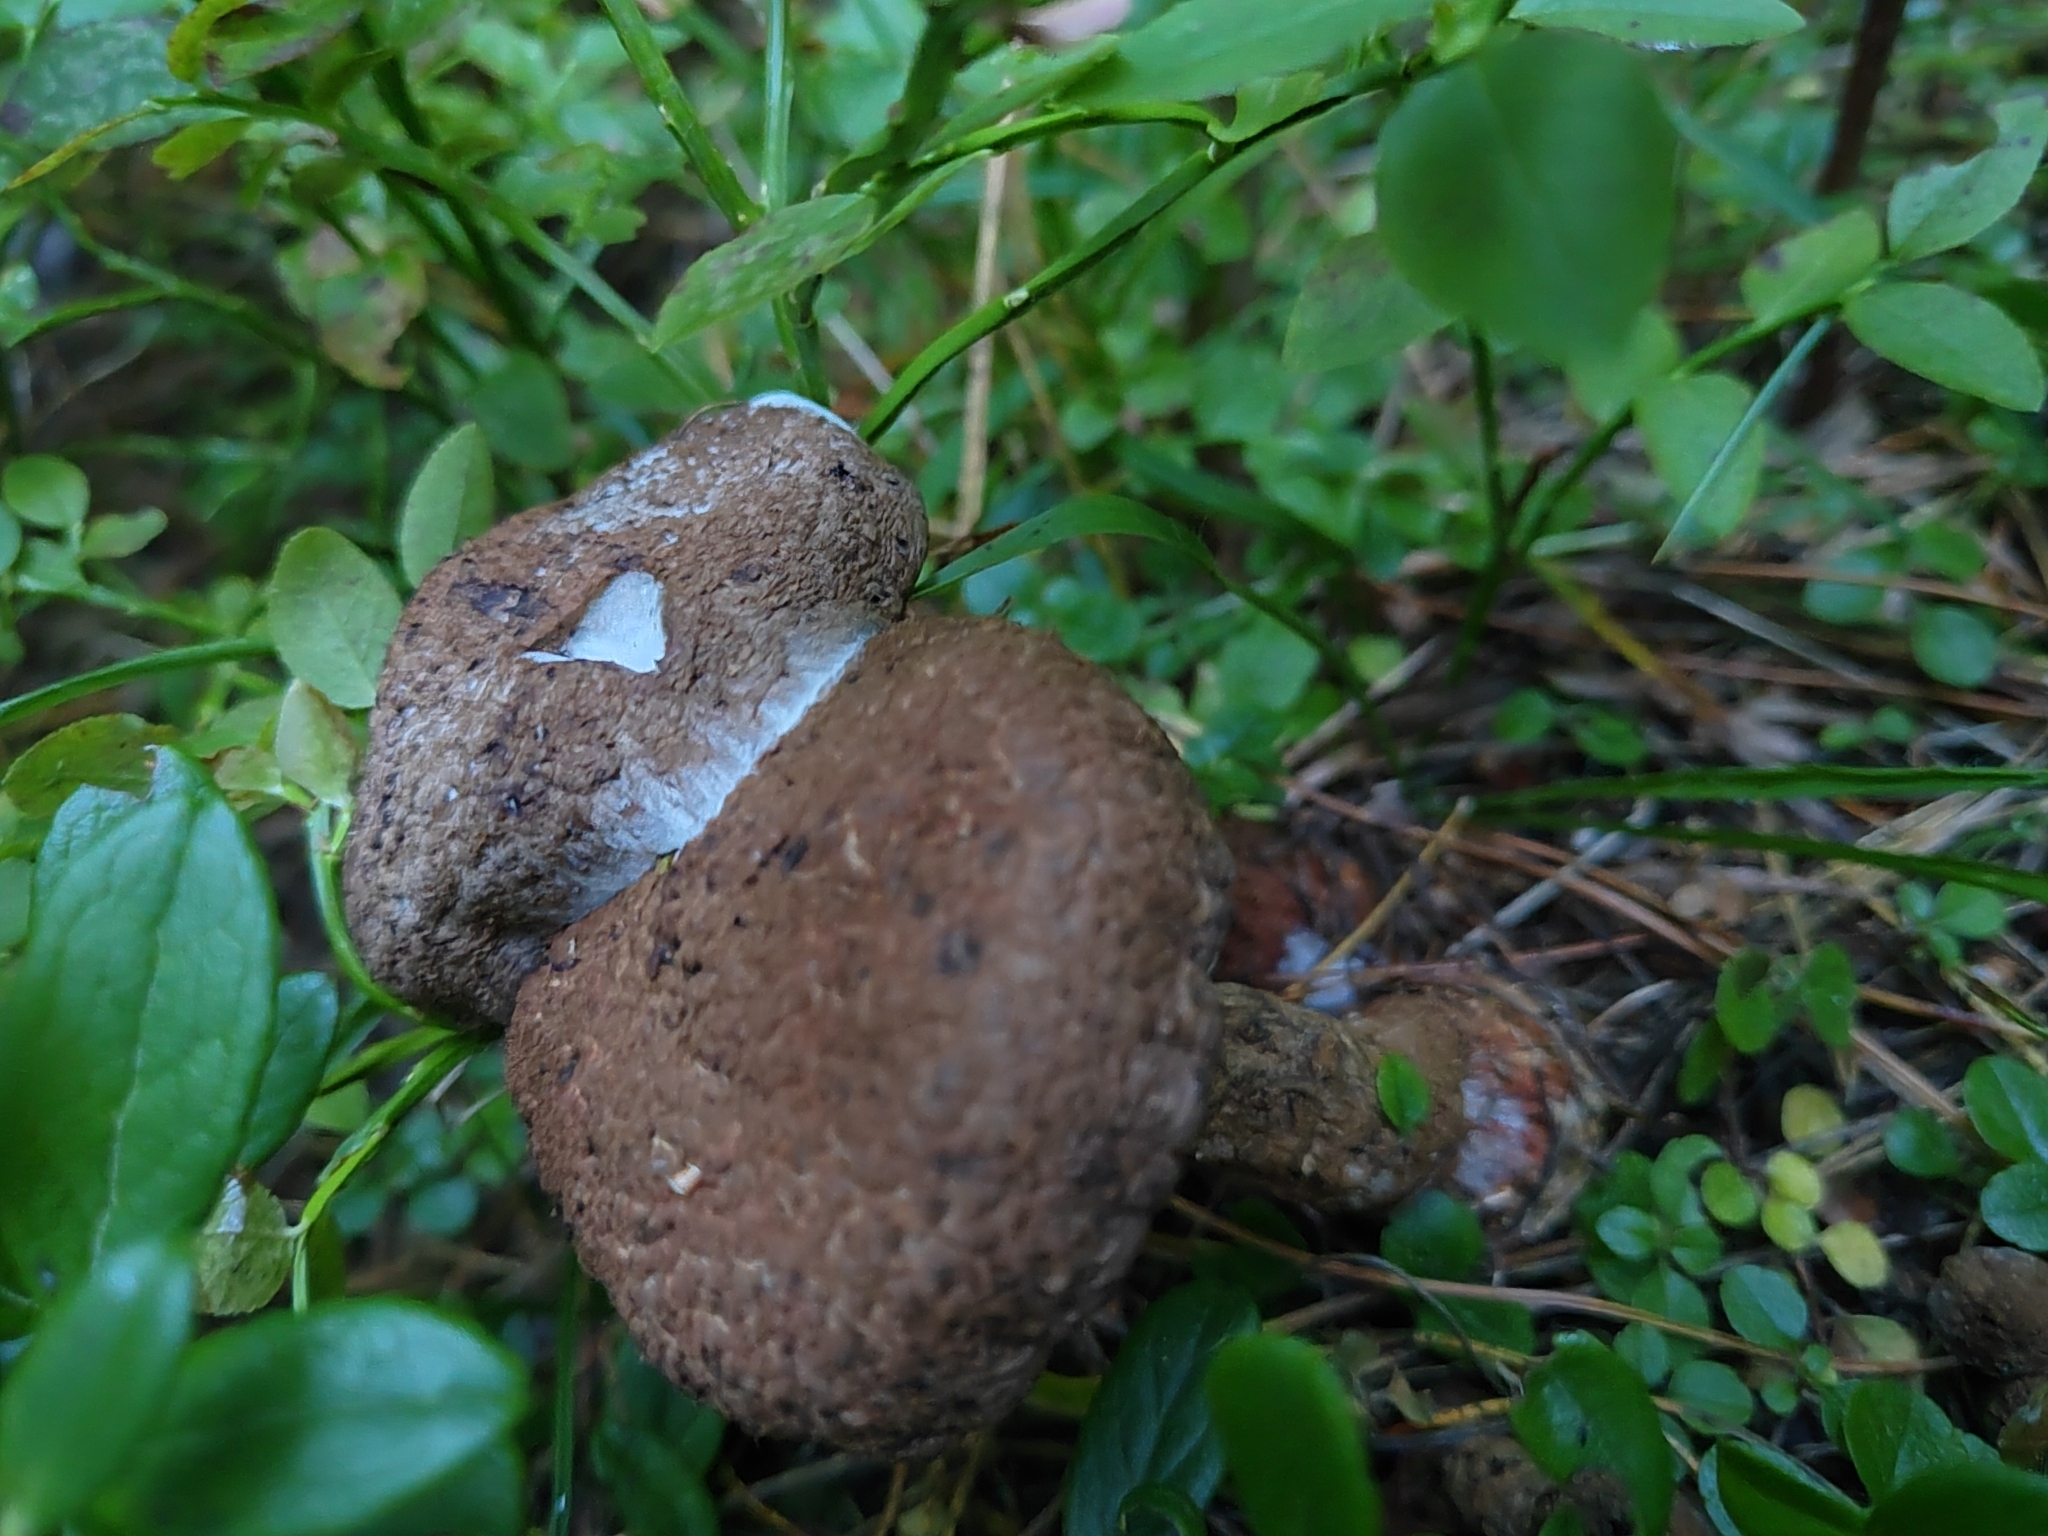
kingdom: Fungi
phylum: Basidiomycota
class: Agaricomycetes
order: Boletales
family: Suillaceae
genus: Suillus
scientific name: Suillus spraguei
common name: Painted suillus
